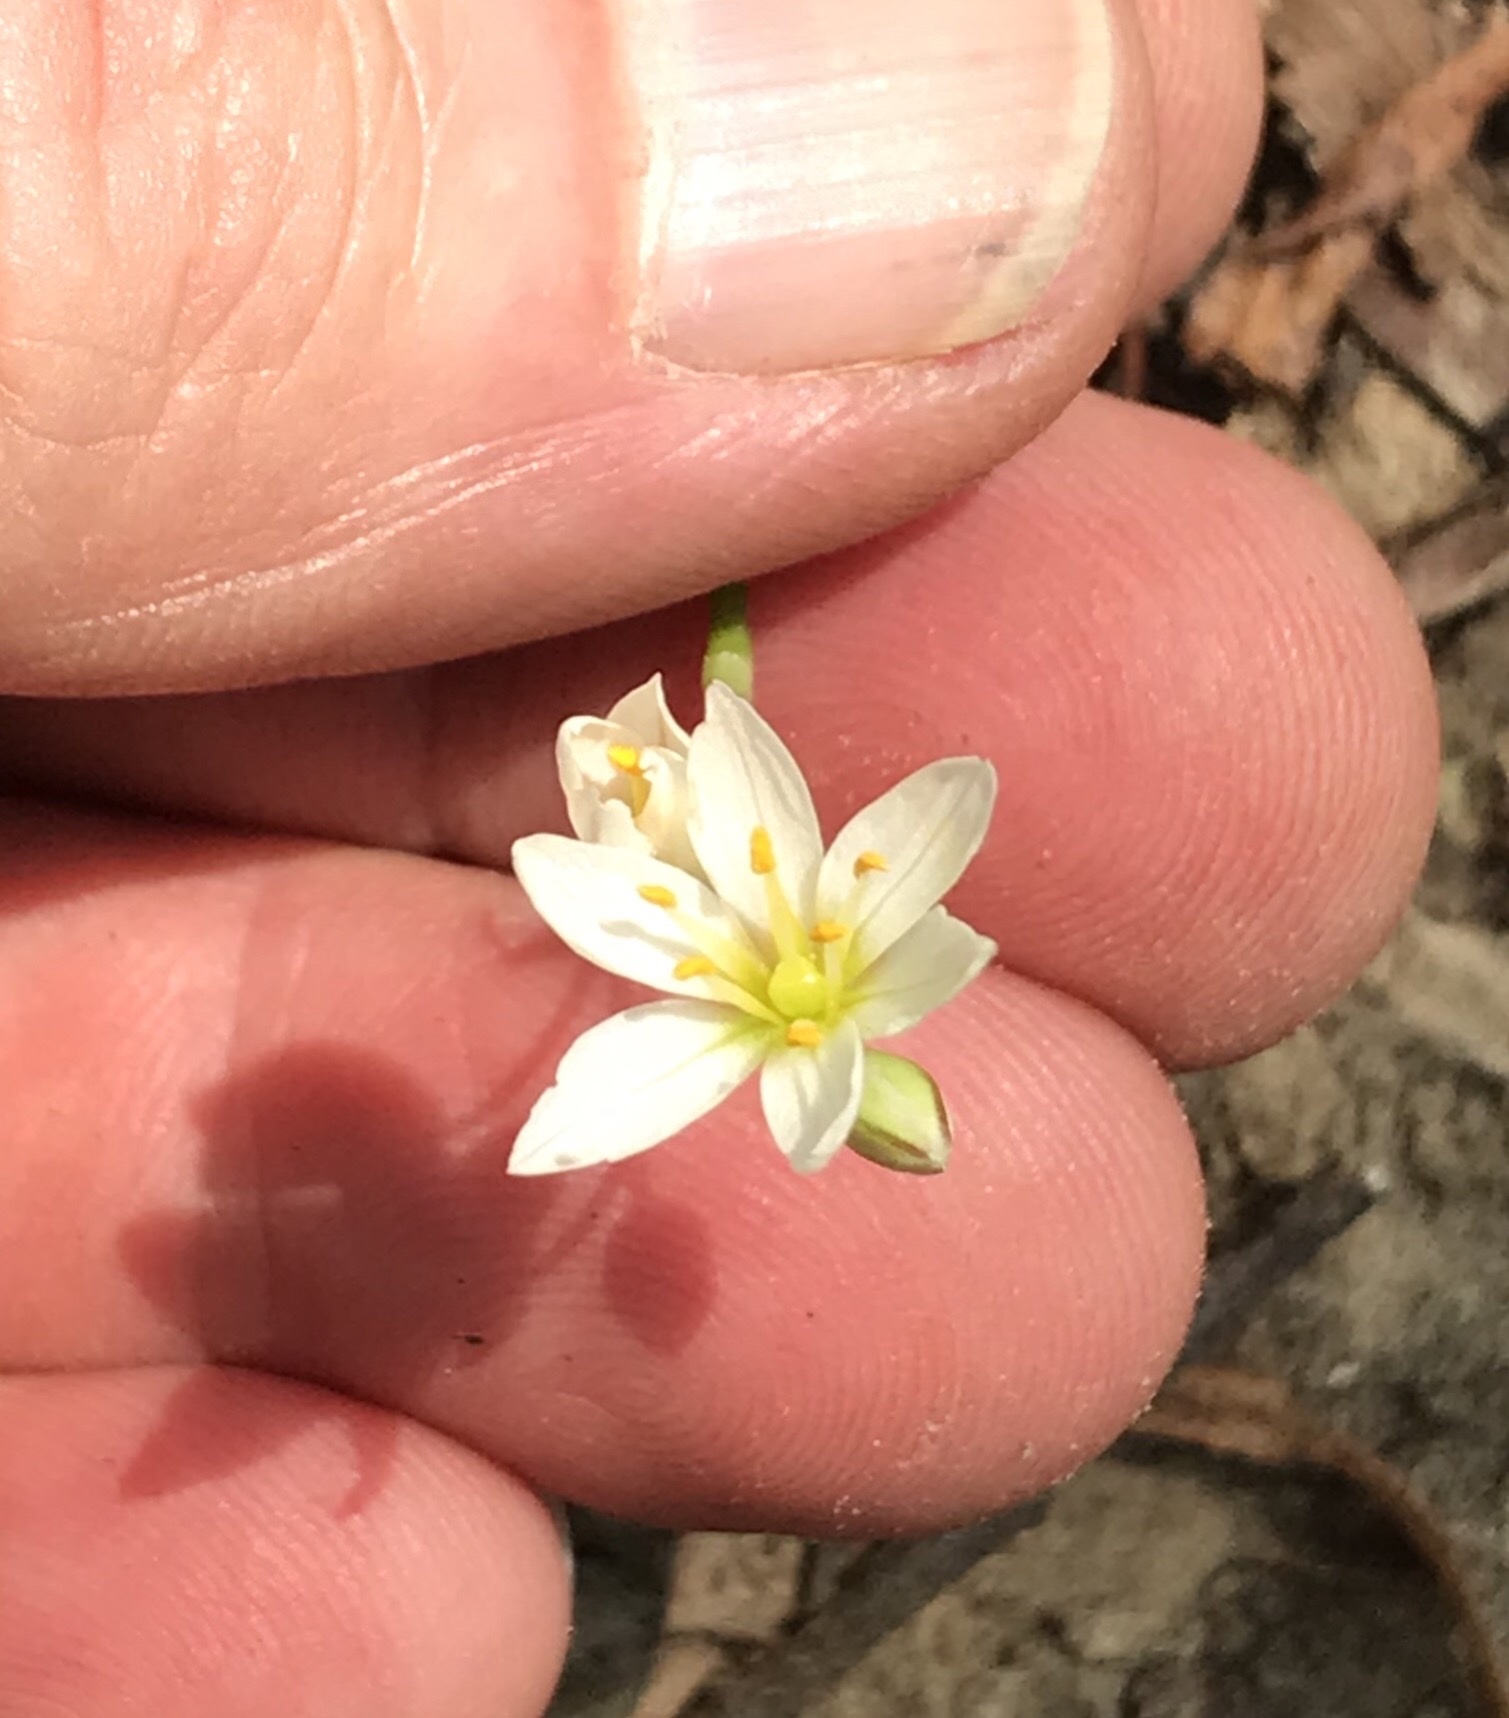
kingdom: Plantae
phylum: Tracheophyta
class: Liliopsida
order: Asparagales
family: Amaryllidaceae
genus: Nothoscordum
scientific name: Nothoscordum bivalve
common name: Crow-poison
